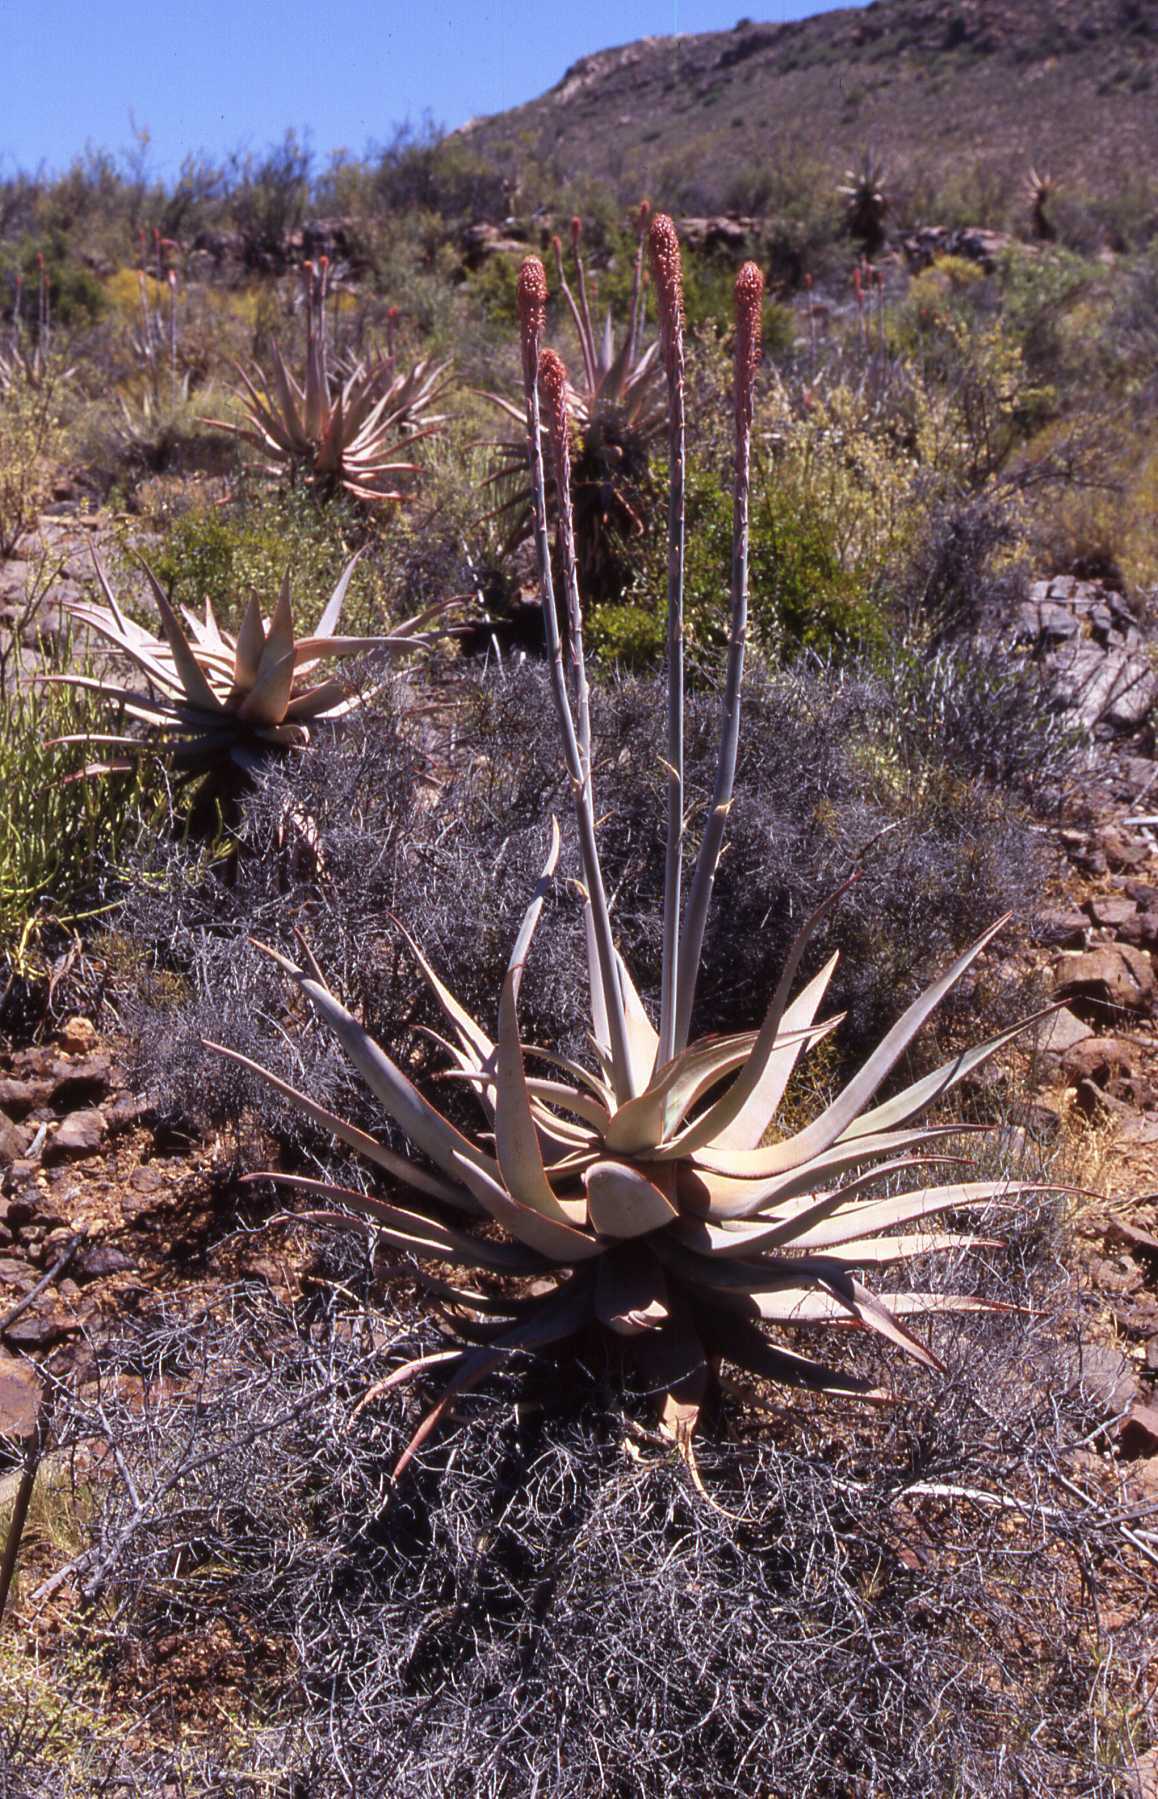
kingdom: Plantae
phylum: Tracheophyta
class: Liliopsida
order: Asparagales
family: Asphodelaceae
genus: Aloe
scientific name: Aloe comosa
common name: Clanwilliam aloe
